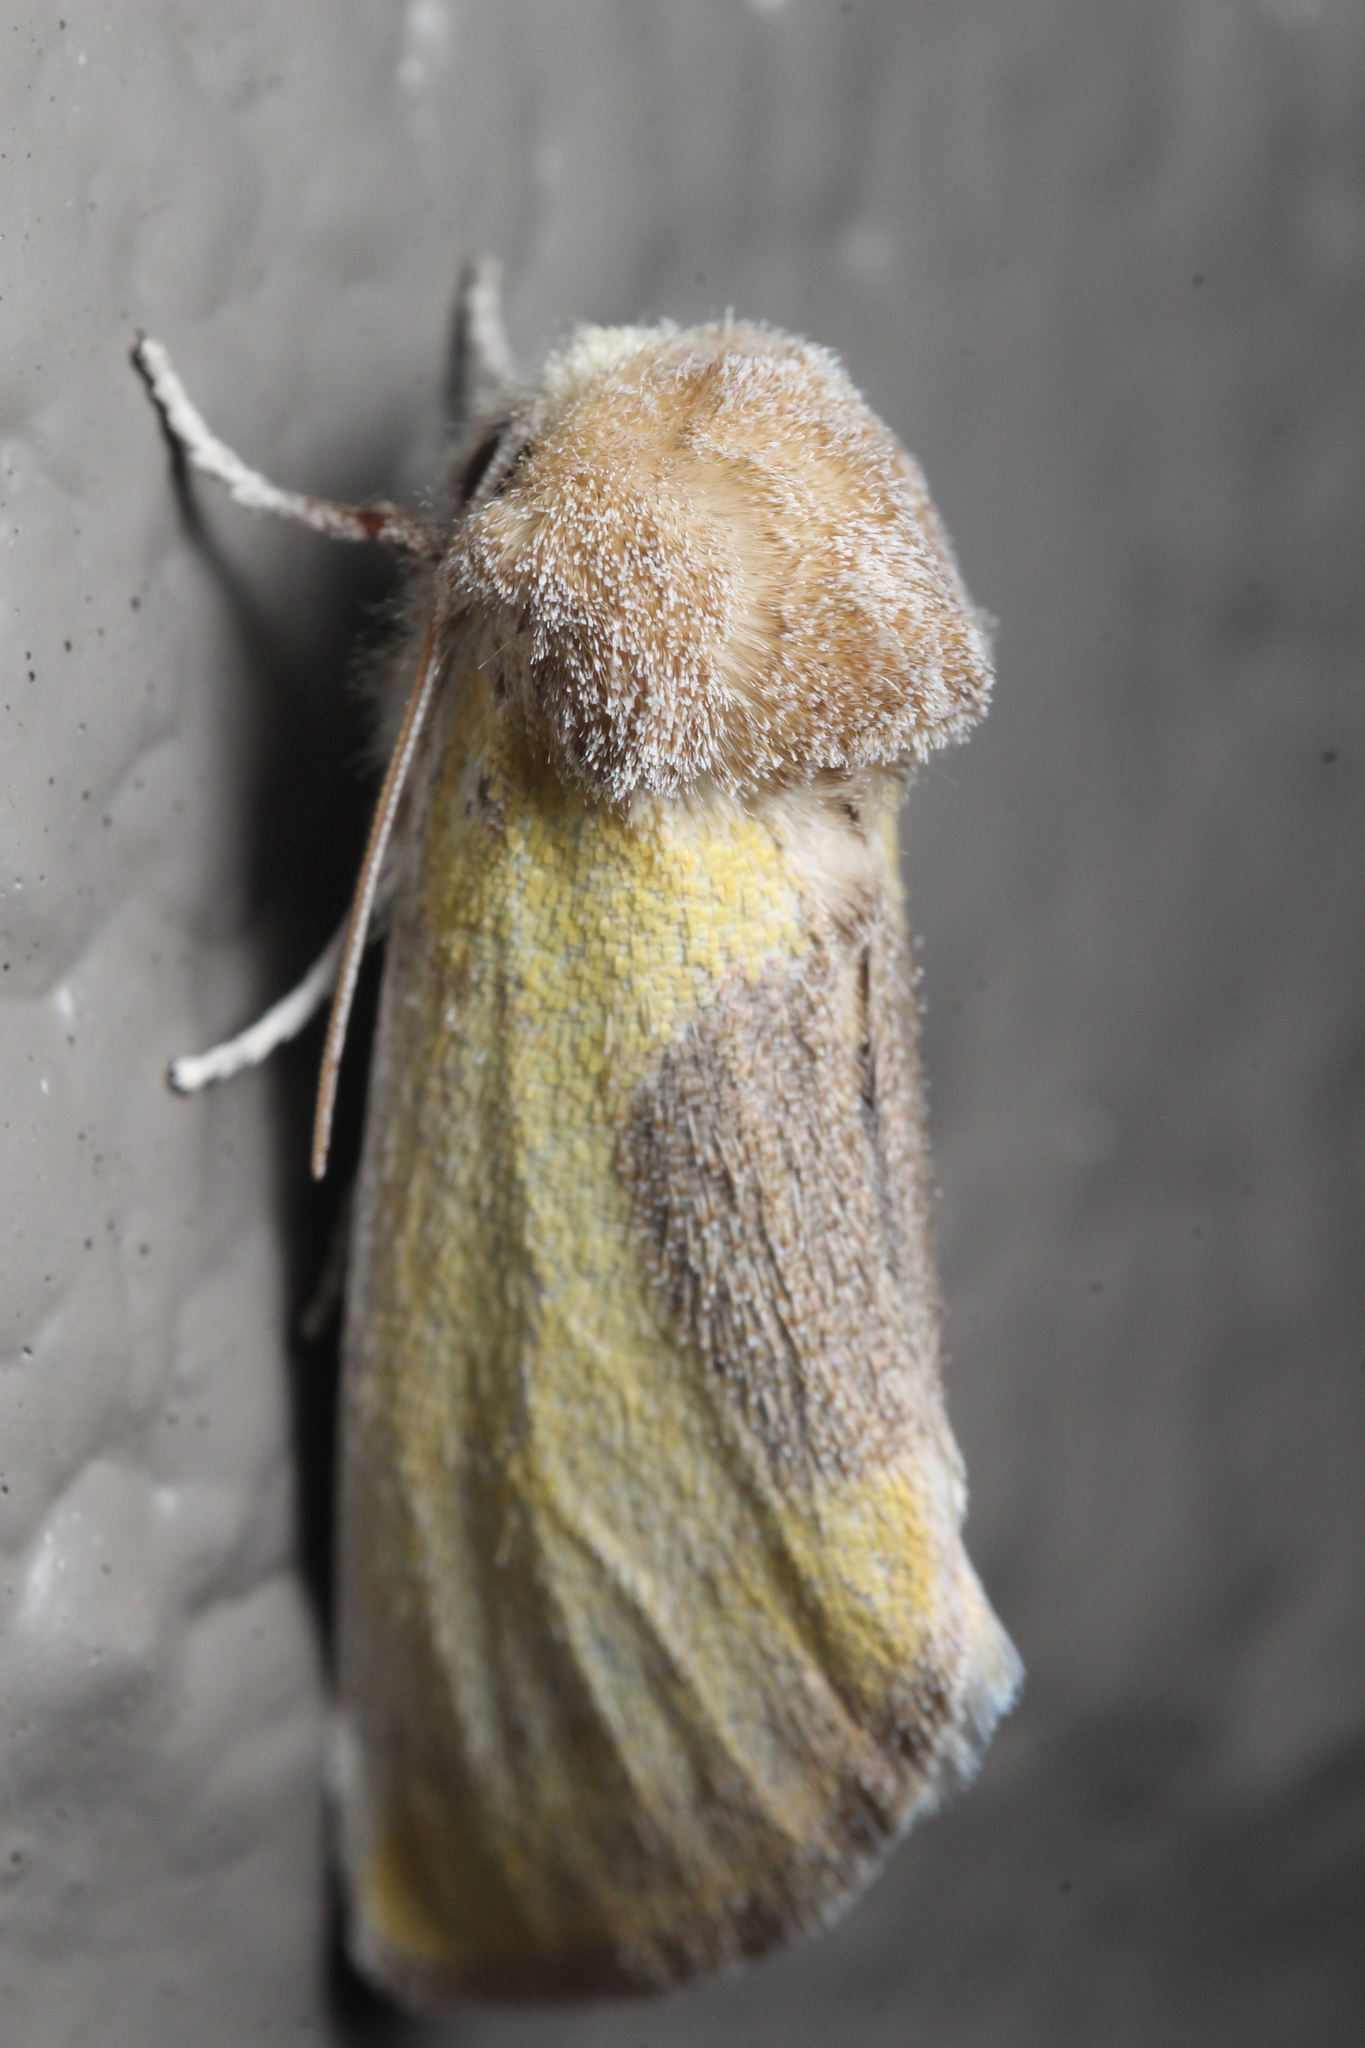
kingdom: Animalia
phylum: Arthropoda
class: Insecta
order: Lepidoptera
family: Noctuidae
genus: Stiria
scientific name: Stiria consuela
